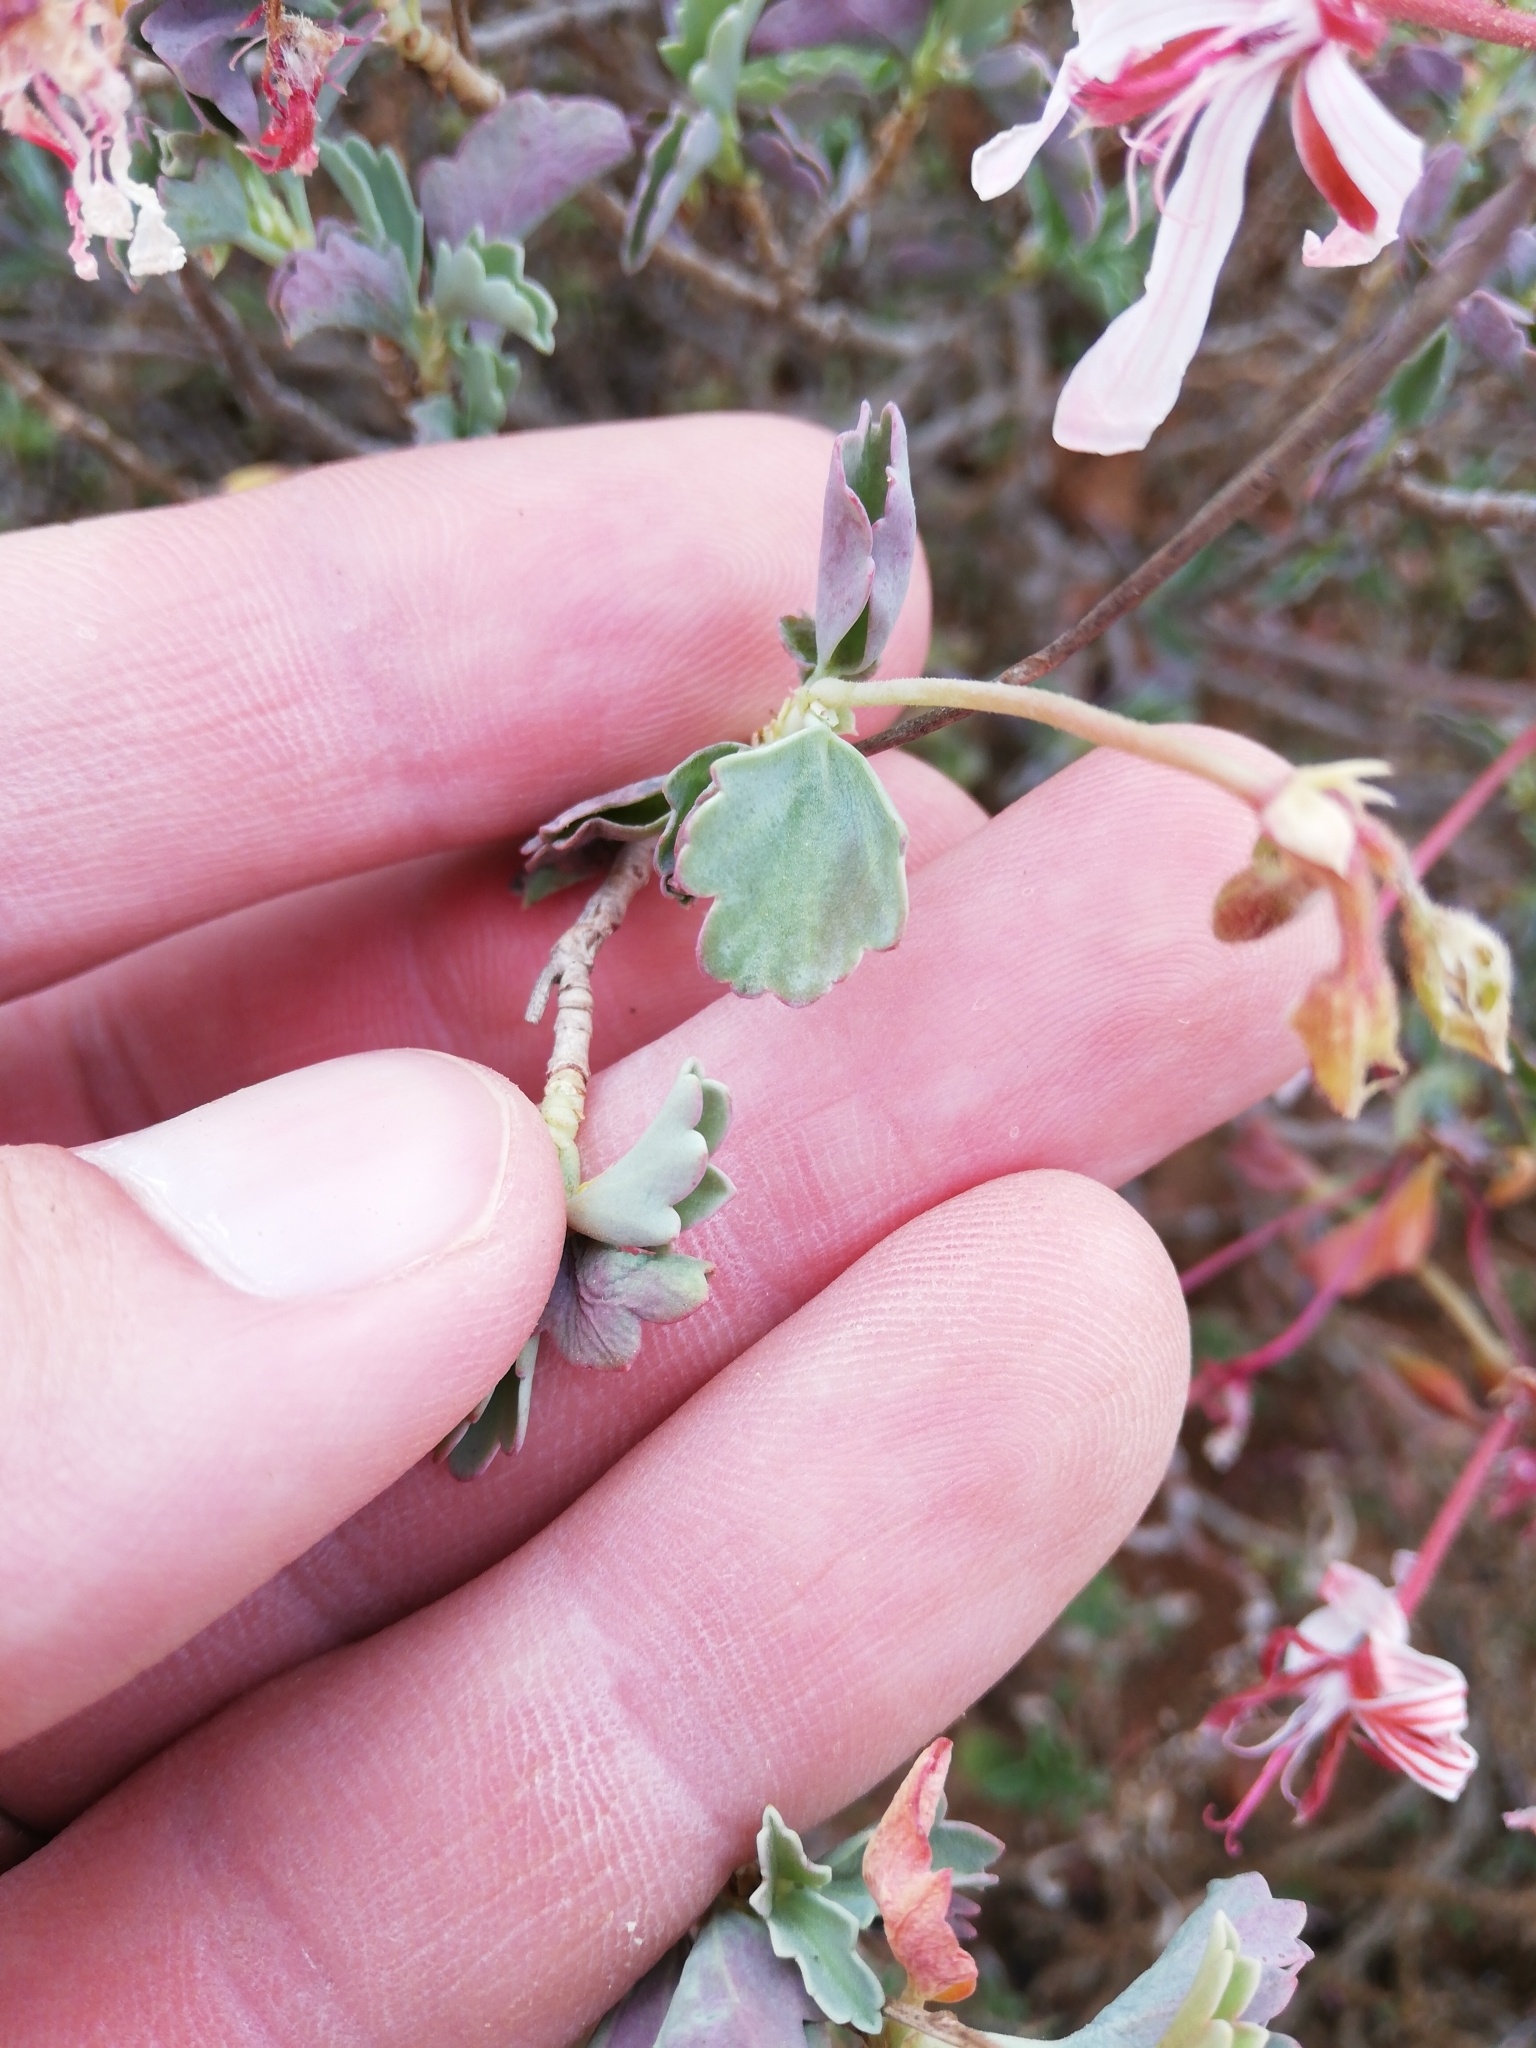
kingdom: Plantae
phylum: Tracheophyta
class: Magnoliopsida
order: Geraniales
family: Geraniaceae
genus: Pelargonium
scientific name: Pelargonium acetosum
